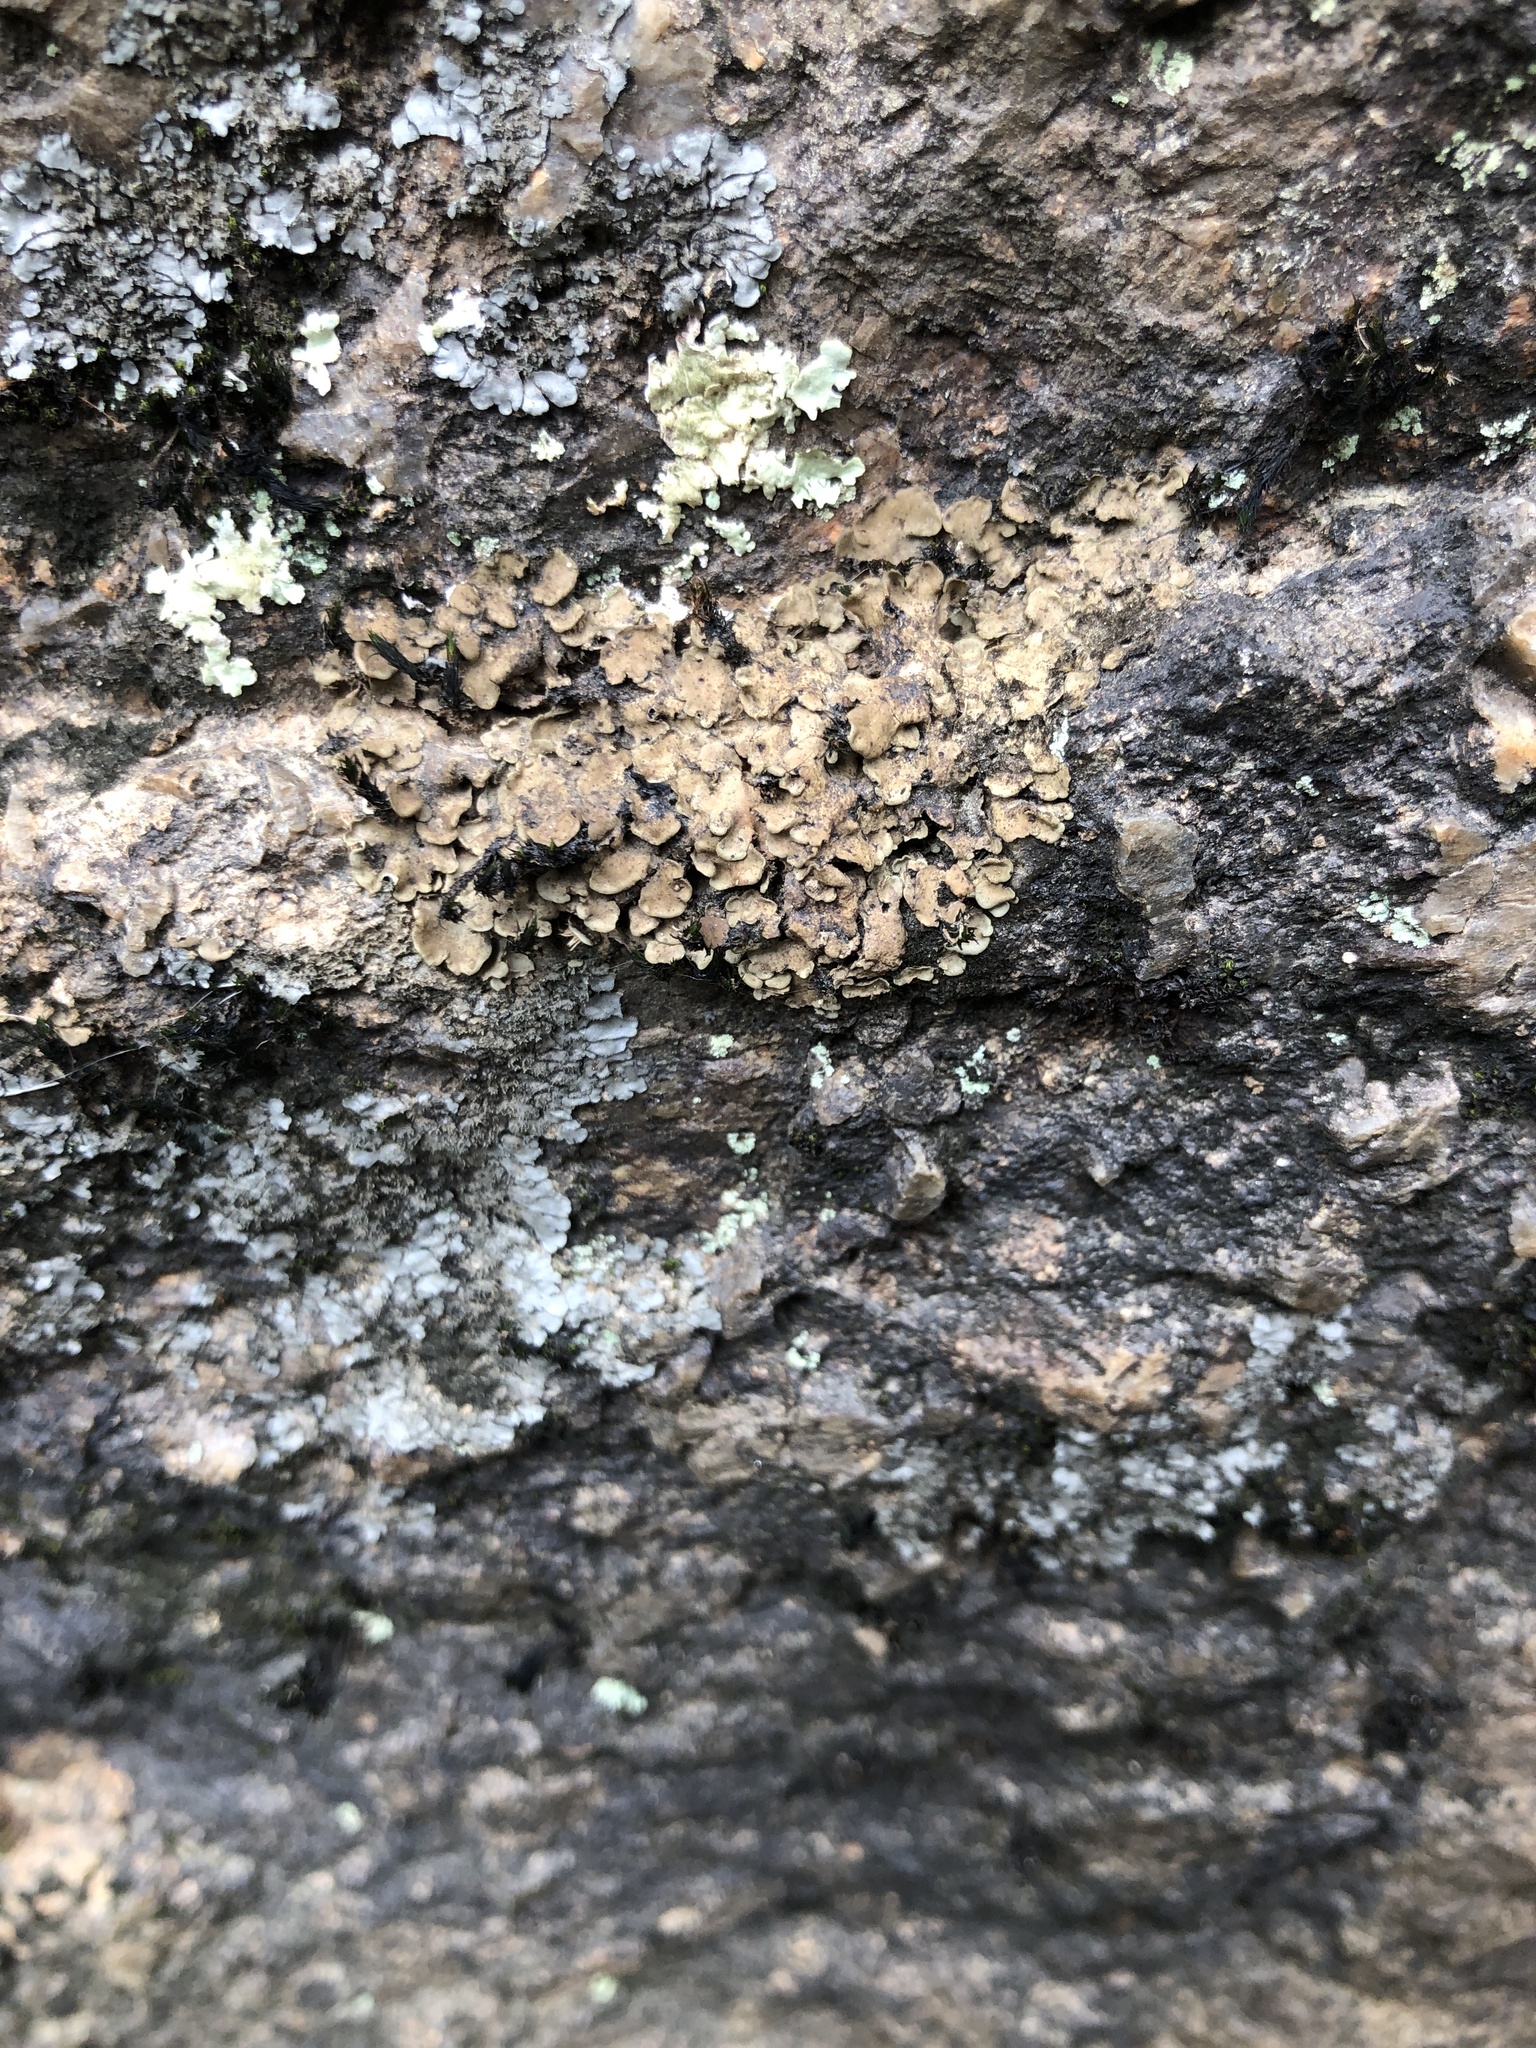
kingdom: Fungi
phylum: Ascomycota
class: Eurotiomycetes
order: Verrucariales
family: Verrucariaceae
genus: Dermatocarpon
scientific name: Dermatocarpon luridum
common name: Brook stippleback lichen
